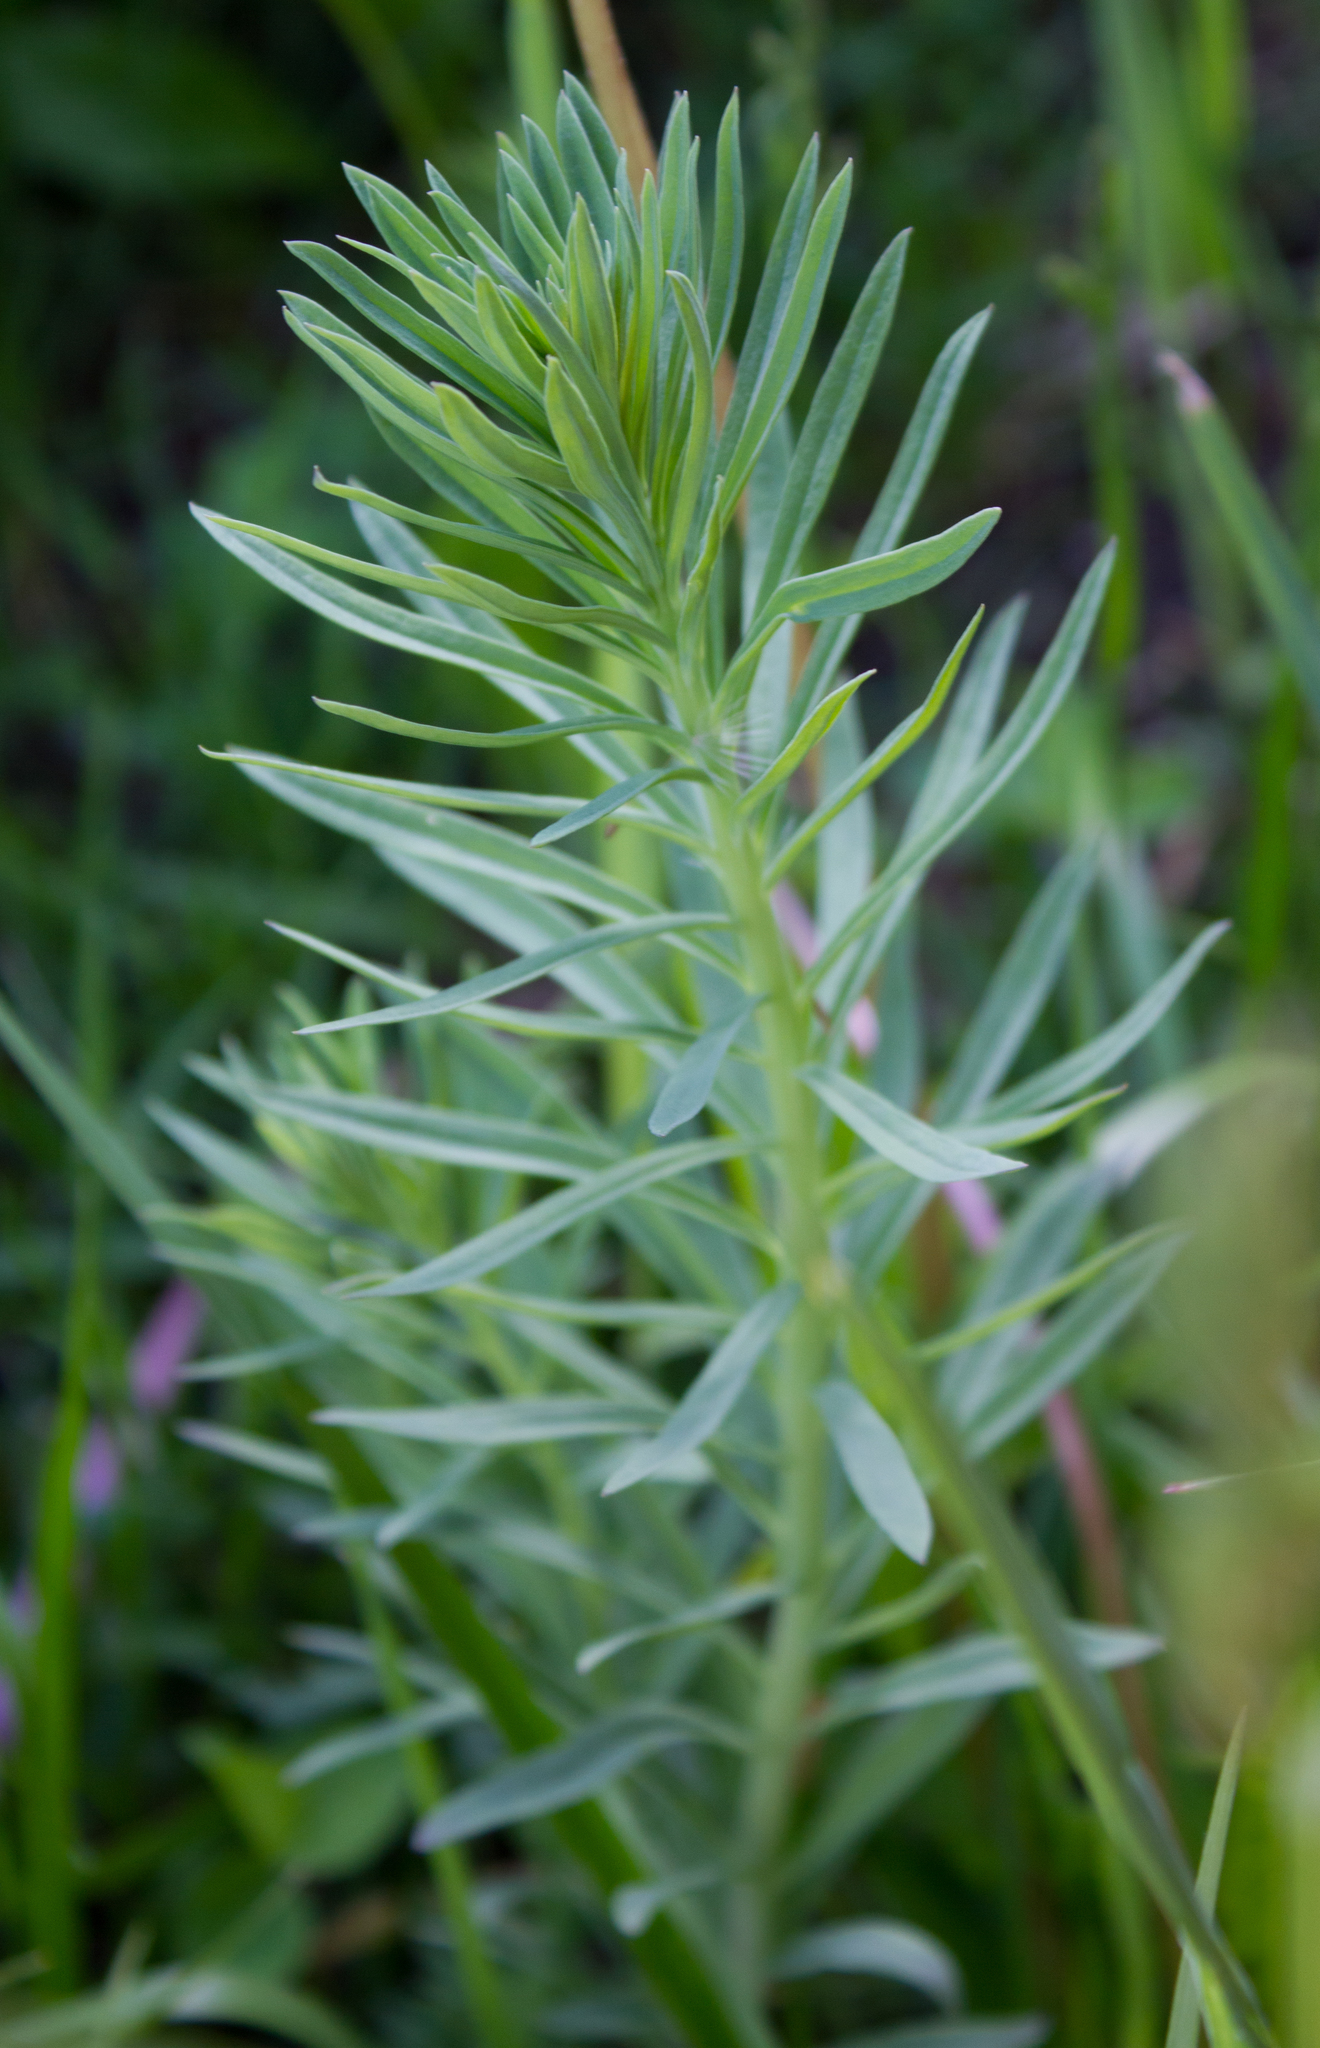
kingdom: Plantae
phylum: Tracheophyta
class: Magnoliopsida
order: Lamiales
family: Plantaginaceae
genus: Linaria
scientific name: Linaria vulgaris
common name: Butter and eggs
